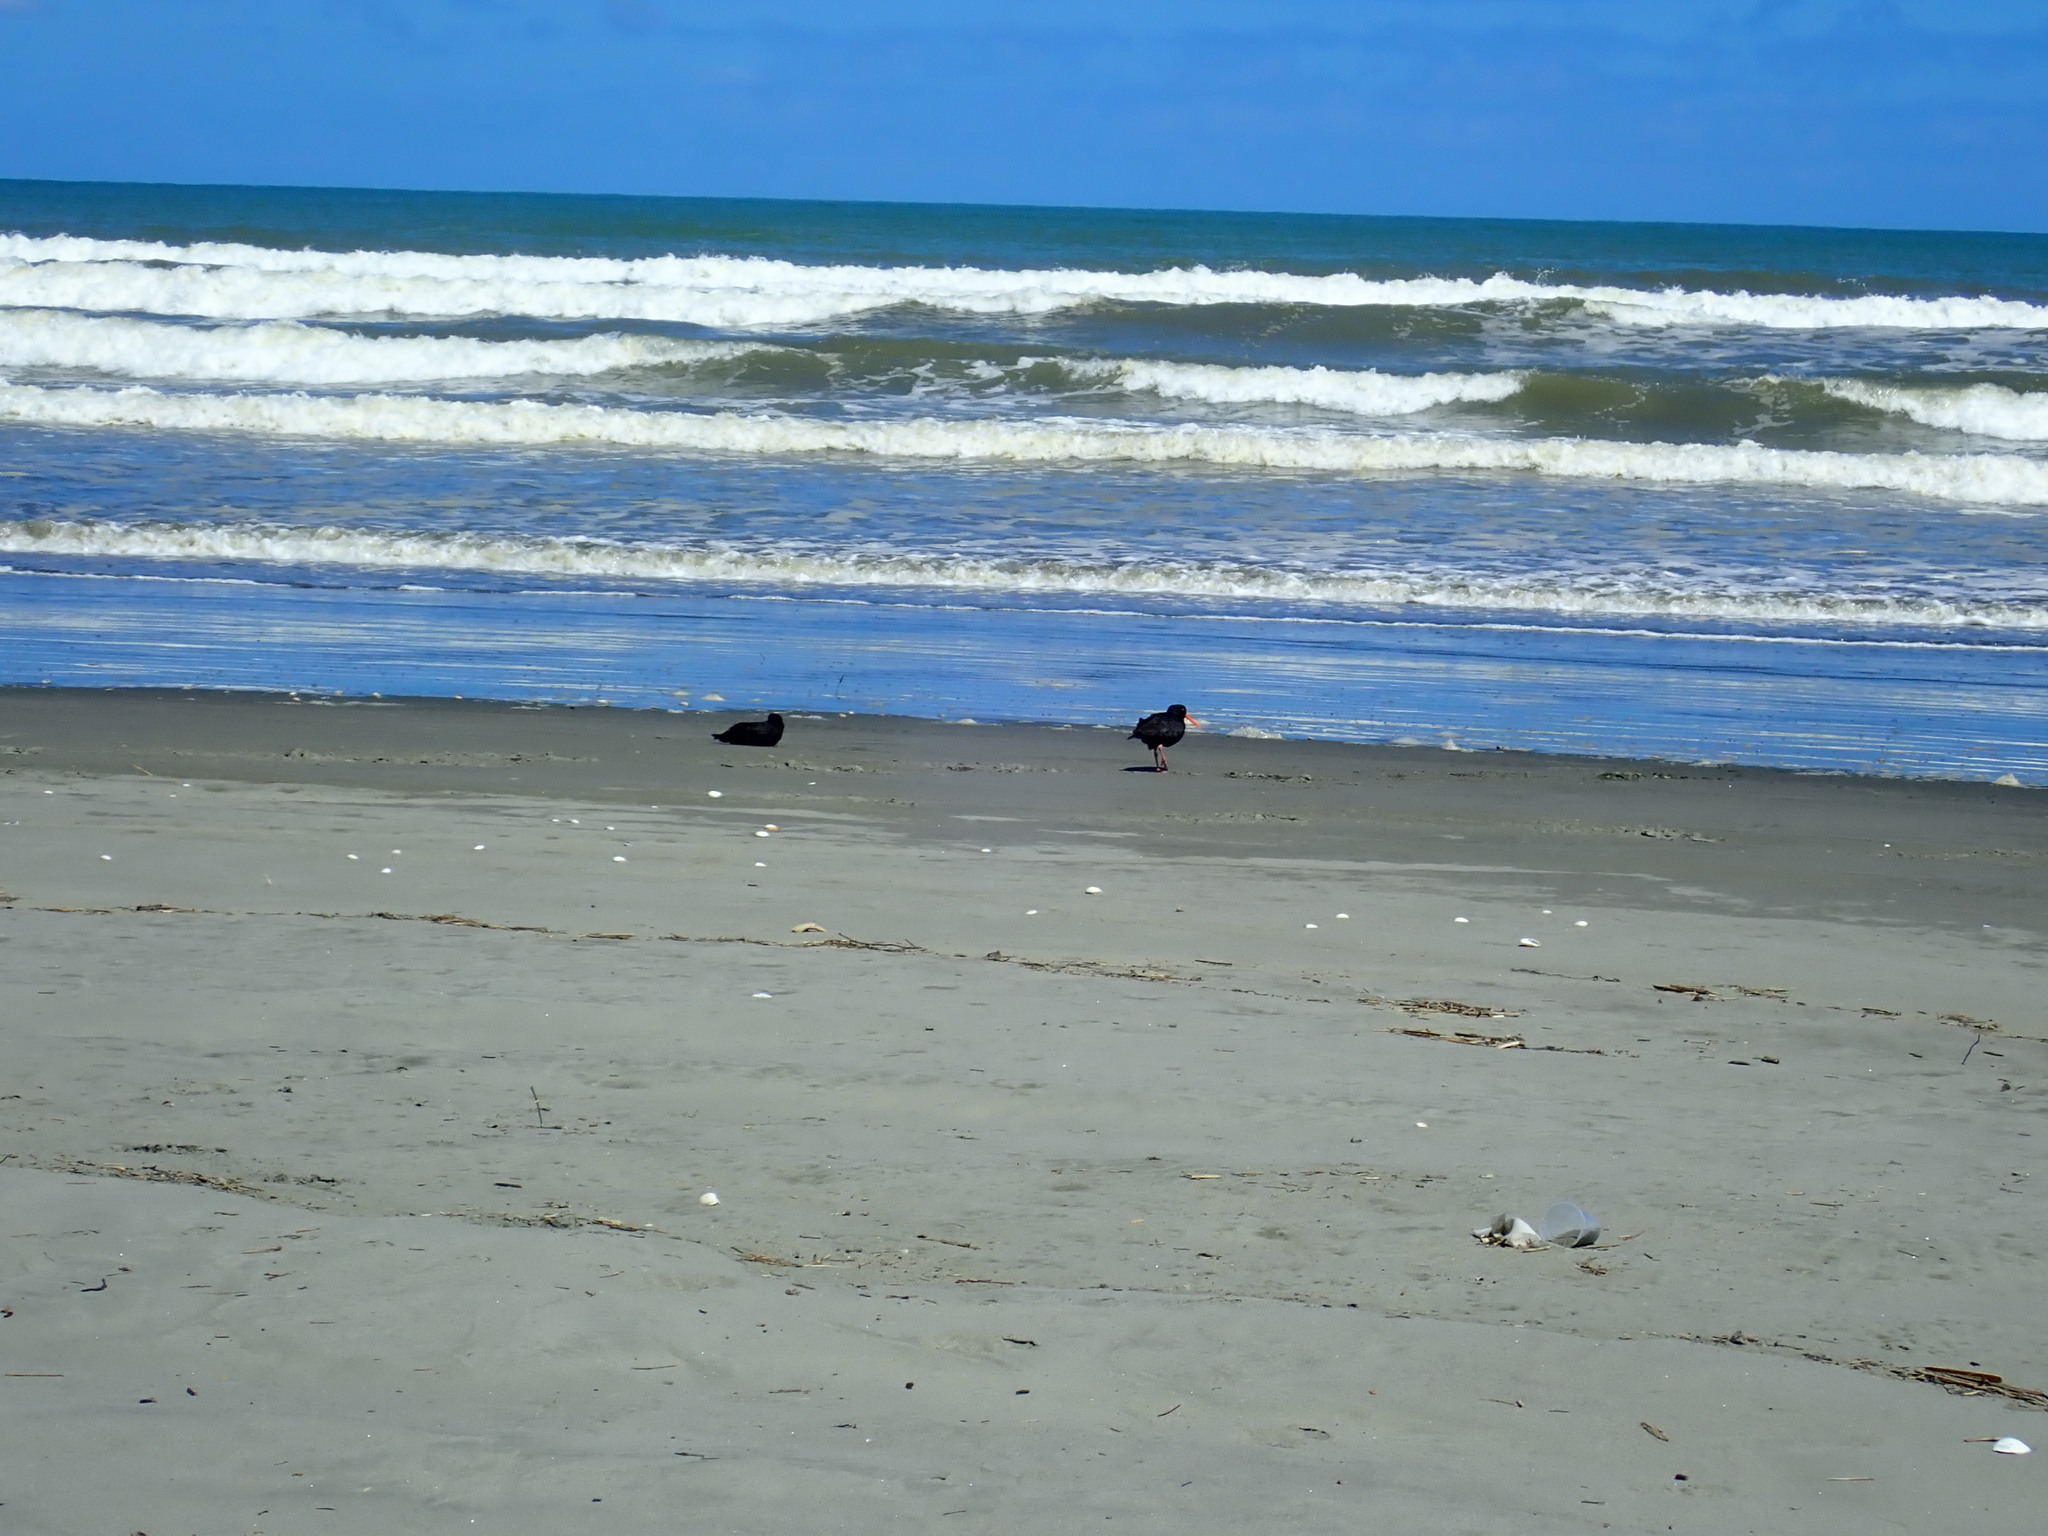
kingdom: Animalia
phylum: Chordata
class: Aves
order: Charadriiformes
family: Haematopodidae
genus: Haematopus
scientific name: Haematopus unicolor
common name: Variable oystercatcher
